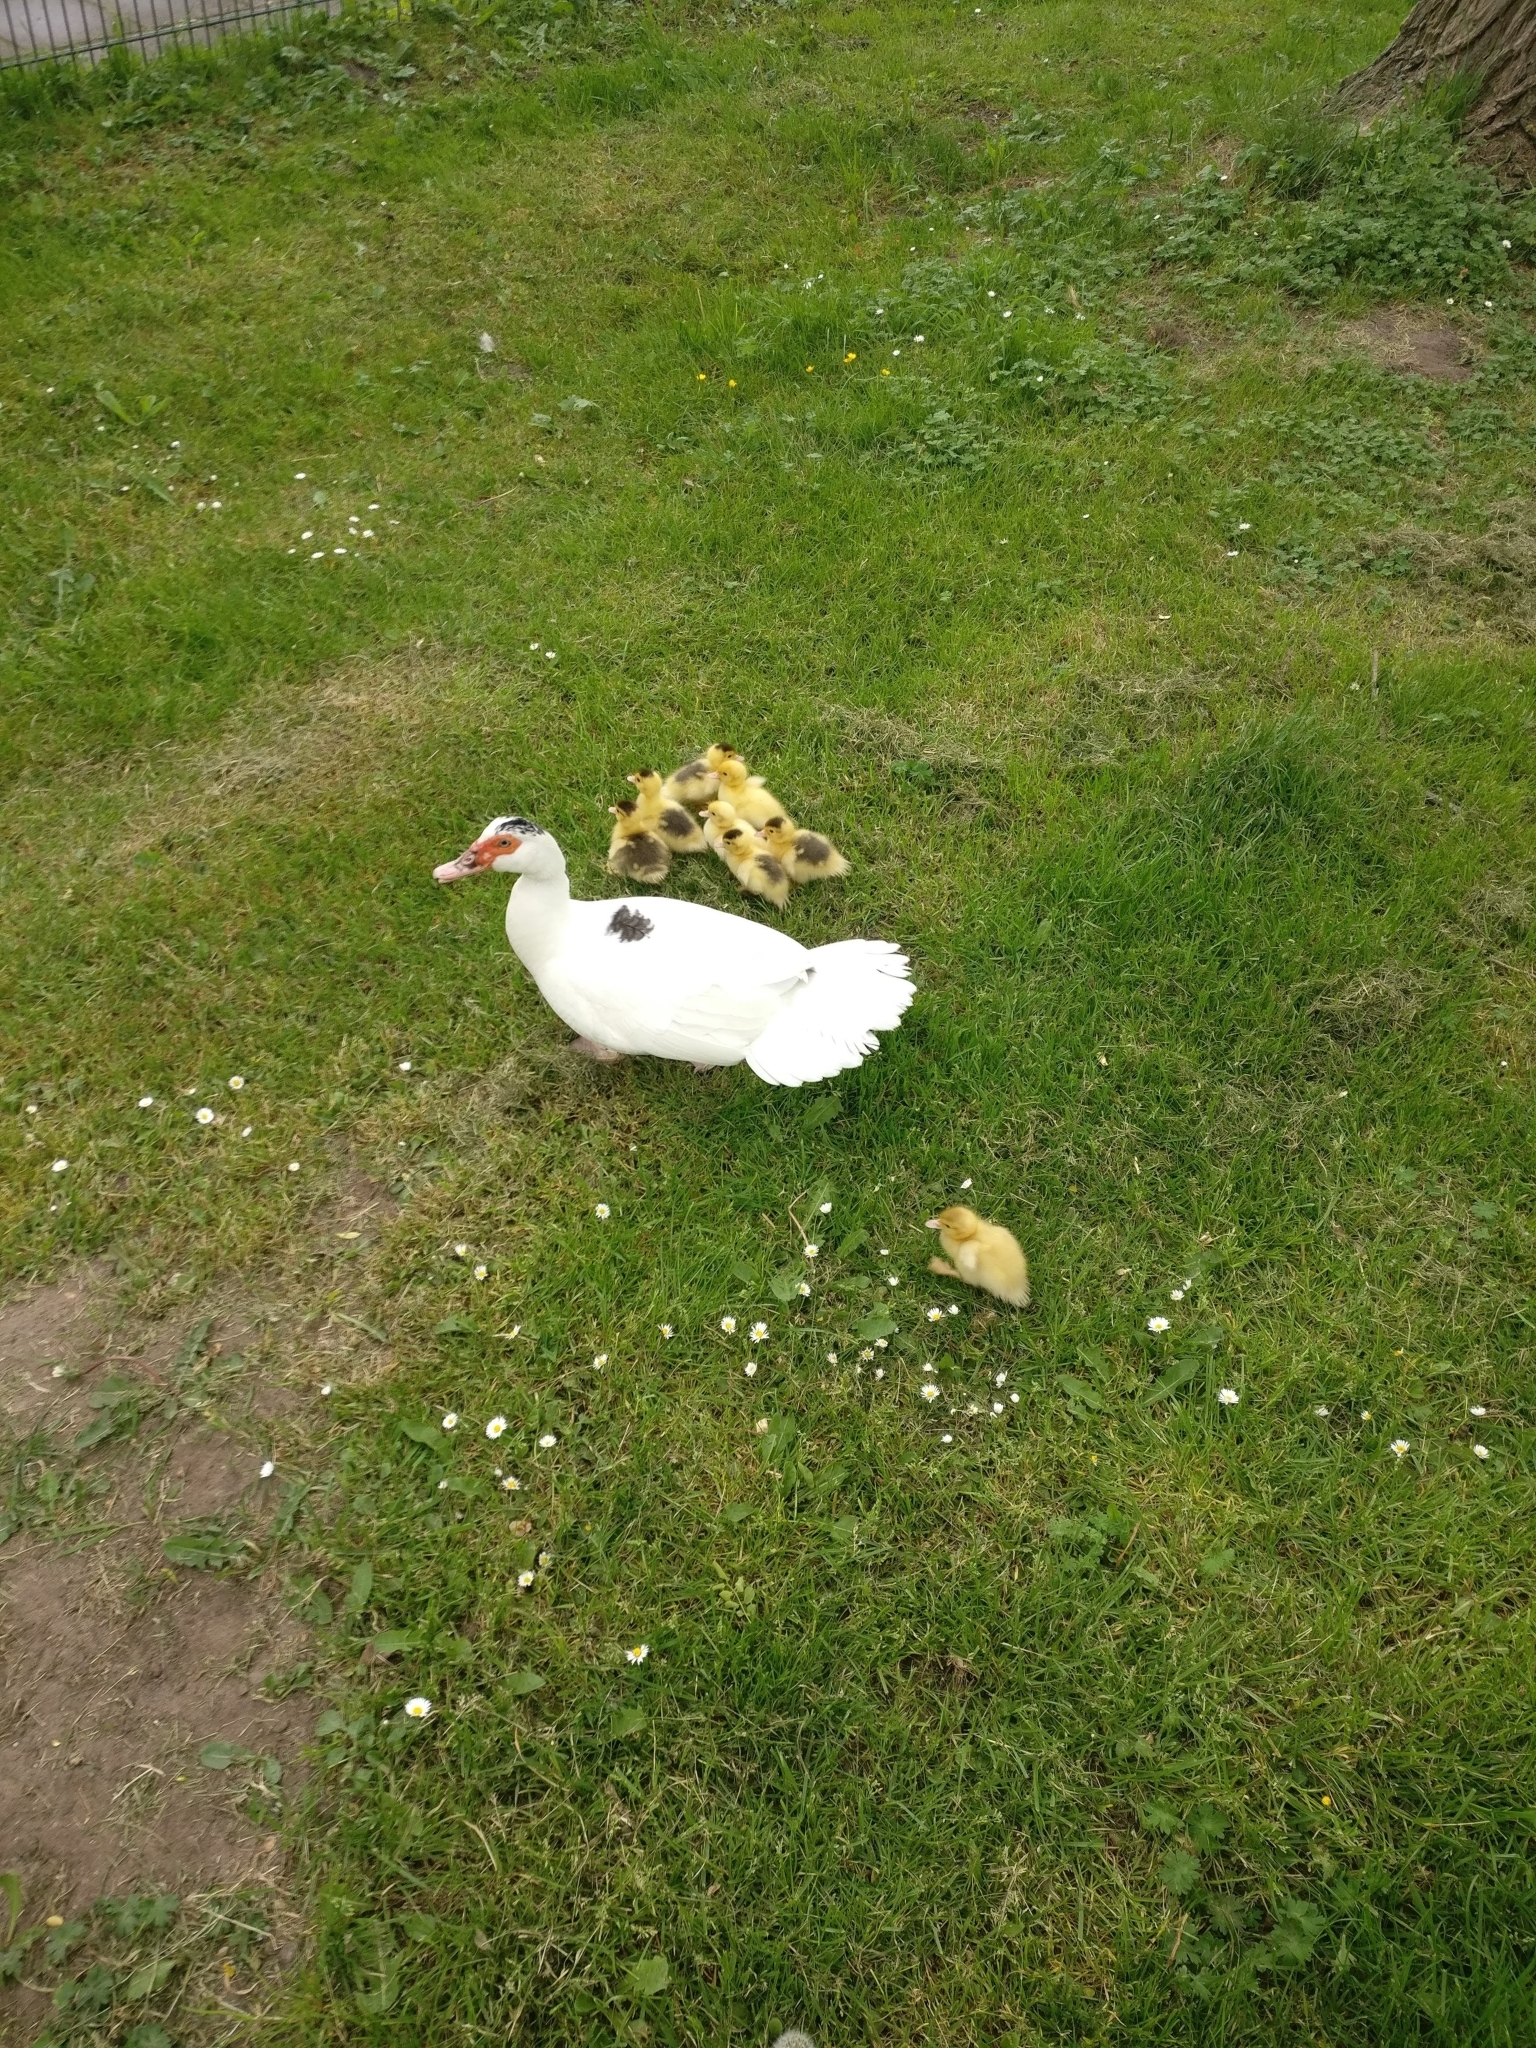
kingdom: Animalia
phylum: Chordata
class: Aves
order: Anseriformes
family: Anatidae
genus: Cairina
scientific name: Cairina moschata
